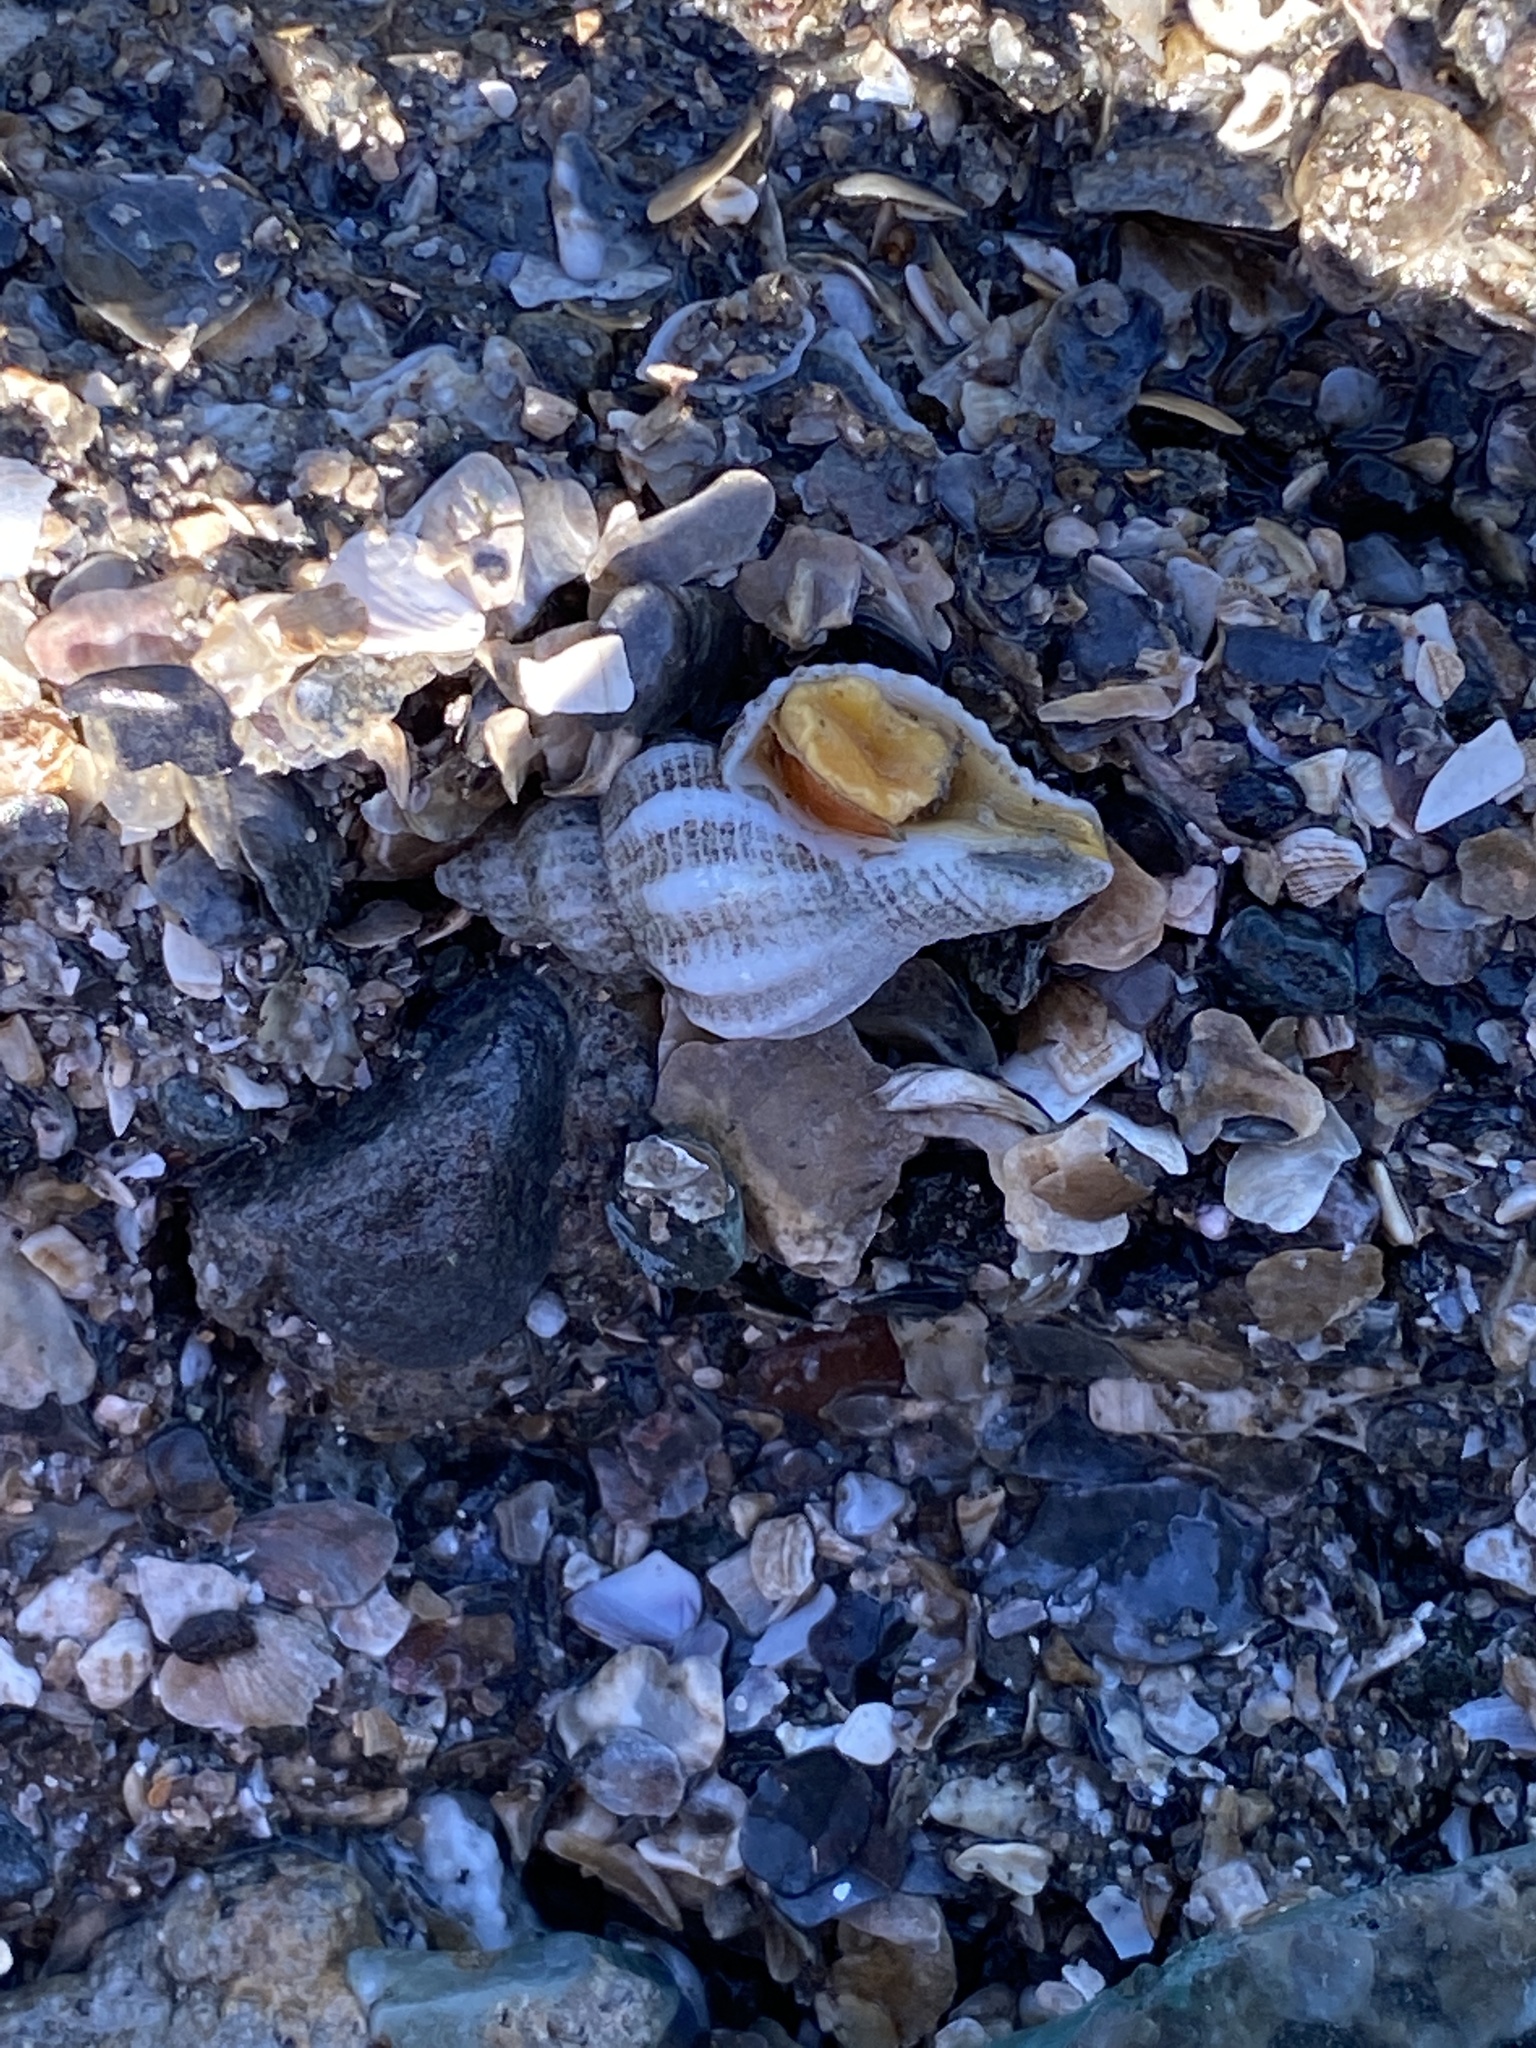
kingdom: Animalia
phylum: Mollusca
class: Gastropoda
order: Neogastropoda
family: Muricidae
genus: Urosalpinx
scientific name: Urosalpinx cinerea
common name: American sting winkle
